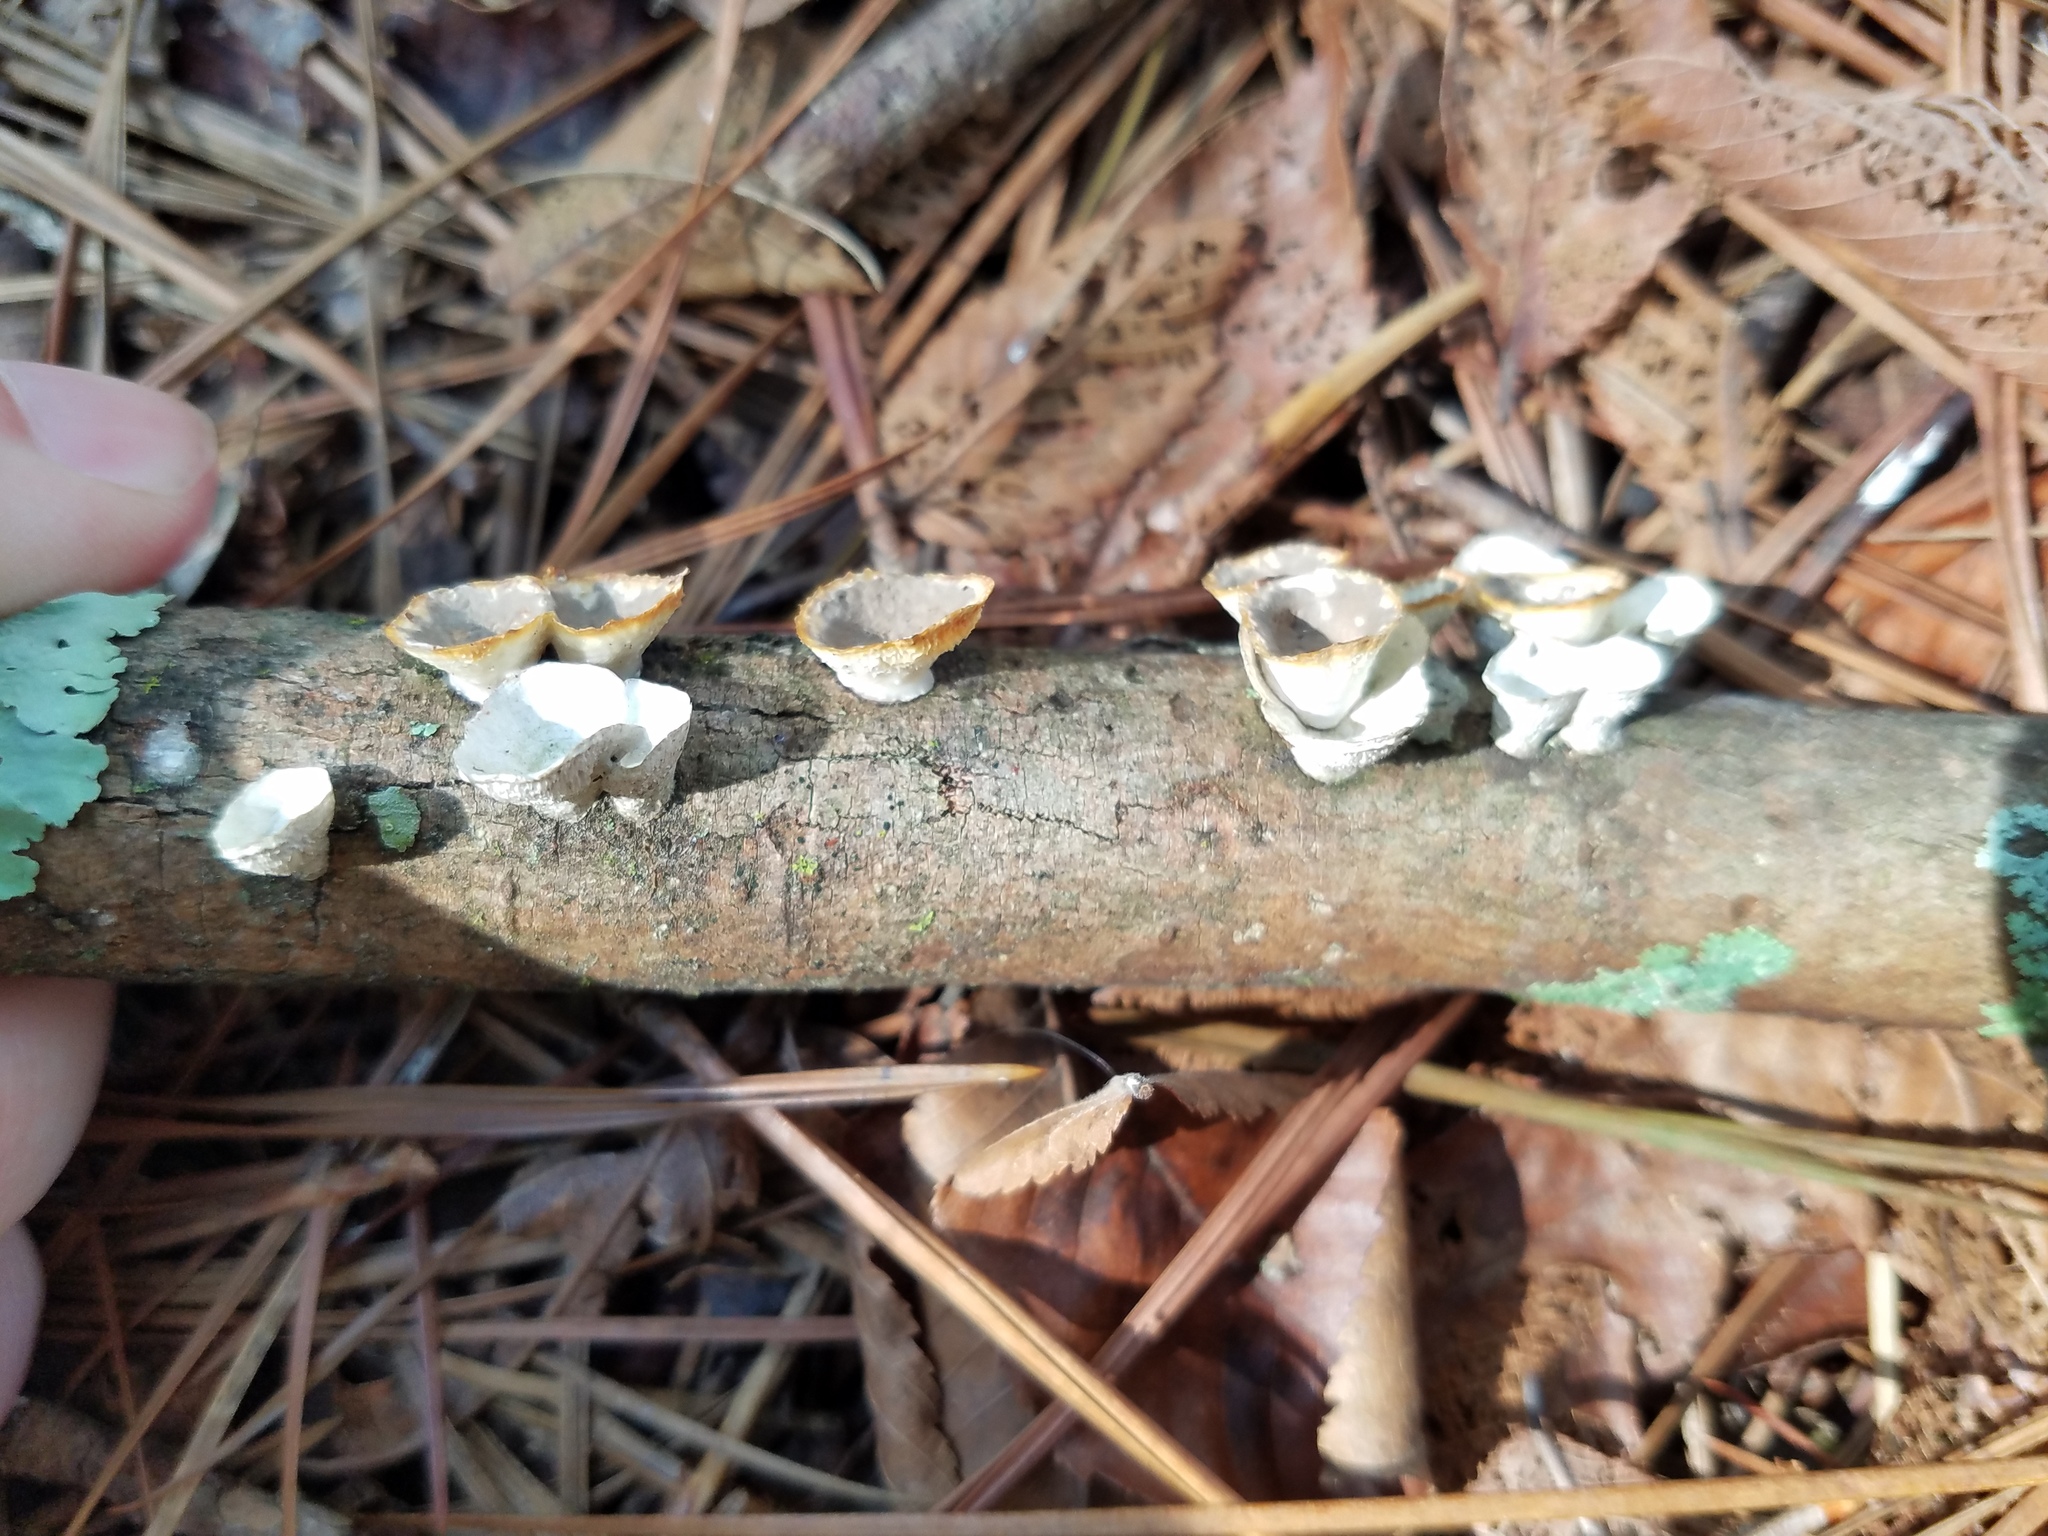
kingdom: Fungi
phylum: Basidiomycota
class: Agaricomycetes
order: Polyporales
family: Polyporaceae
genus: Poronidulus
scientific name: Poronidulus conchifer
